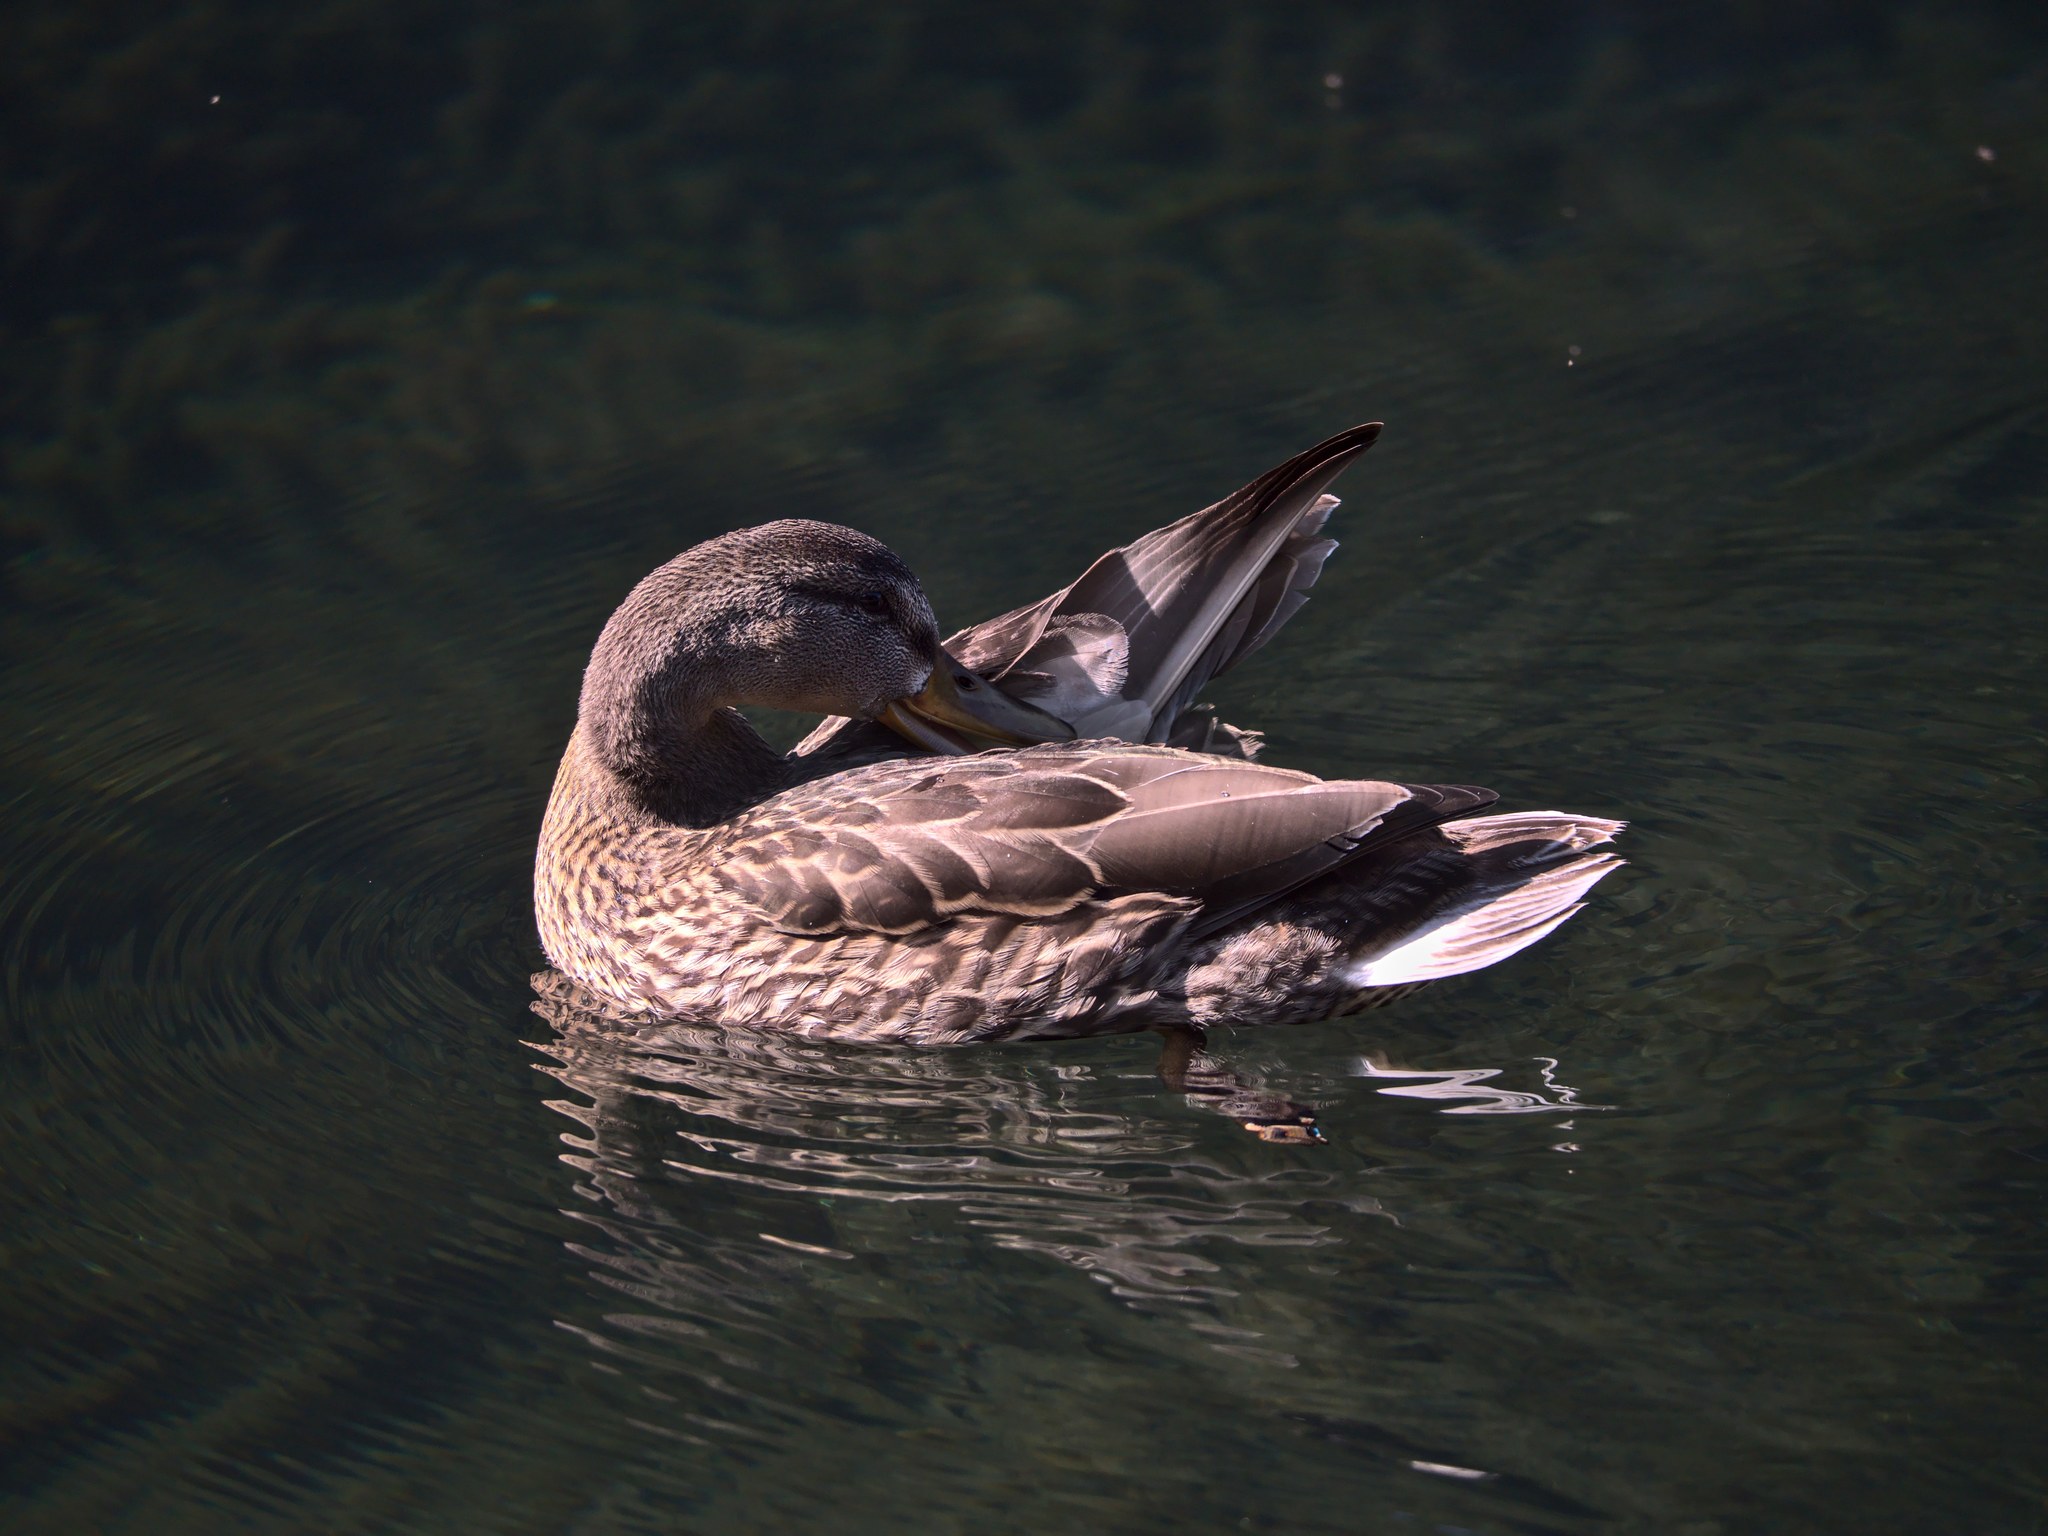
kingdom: Animalia
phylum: Chordata
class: Aves
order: Anseriformes
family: Anatidae
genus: Anas
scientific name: Anas platyrhynchos
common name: Mallard
